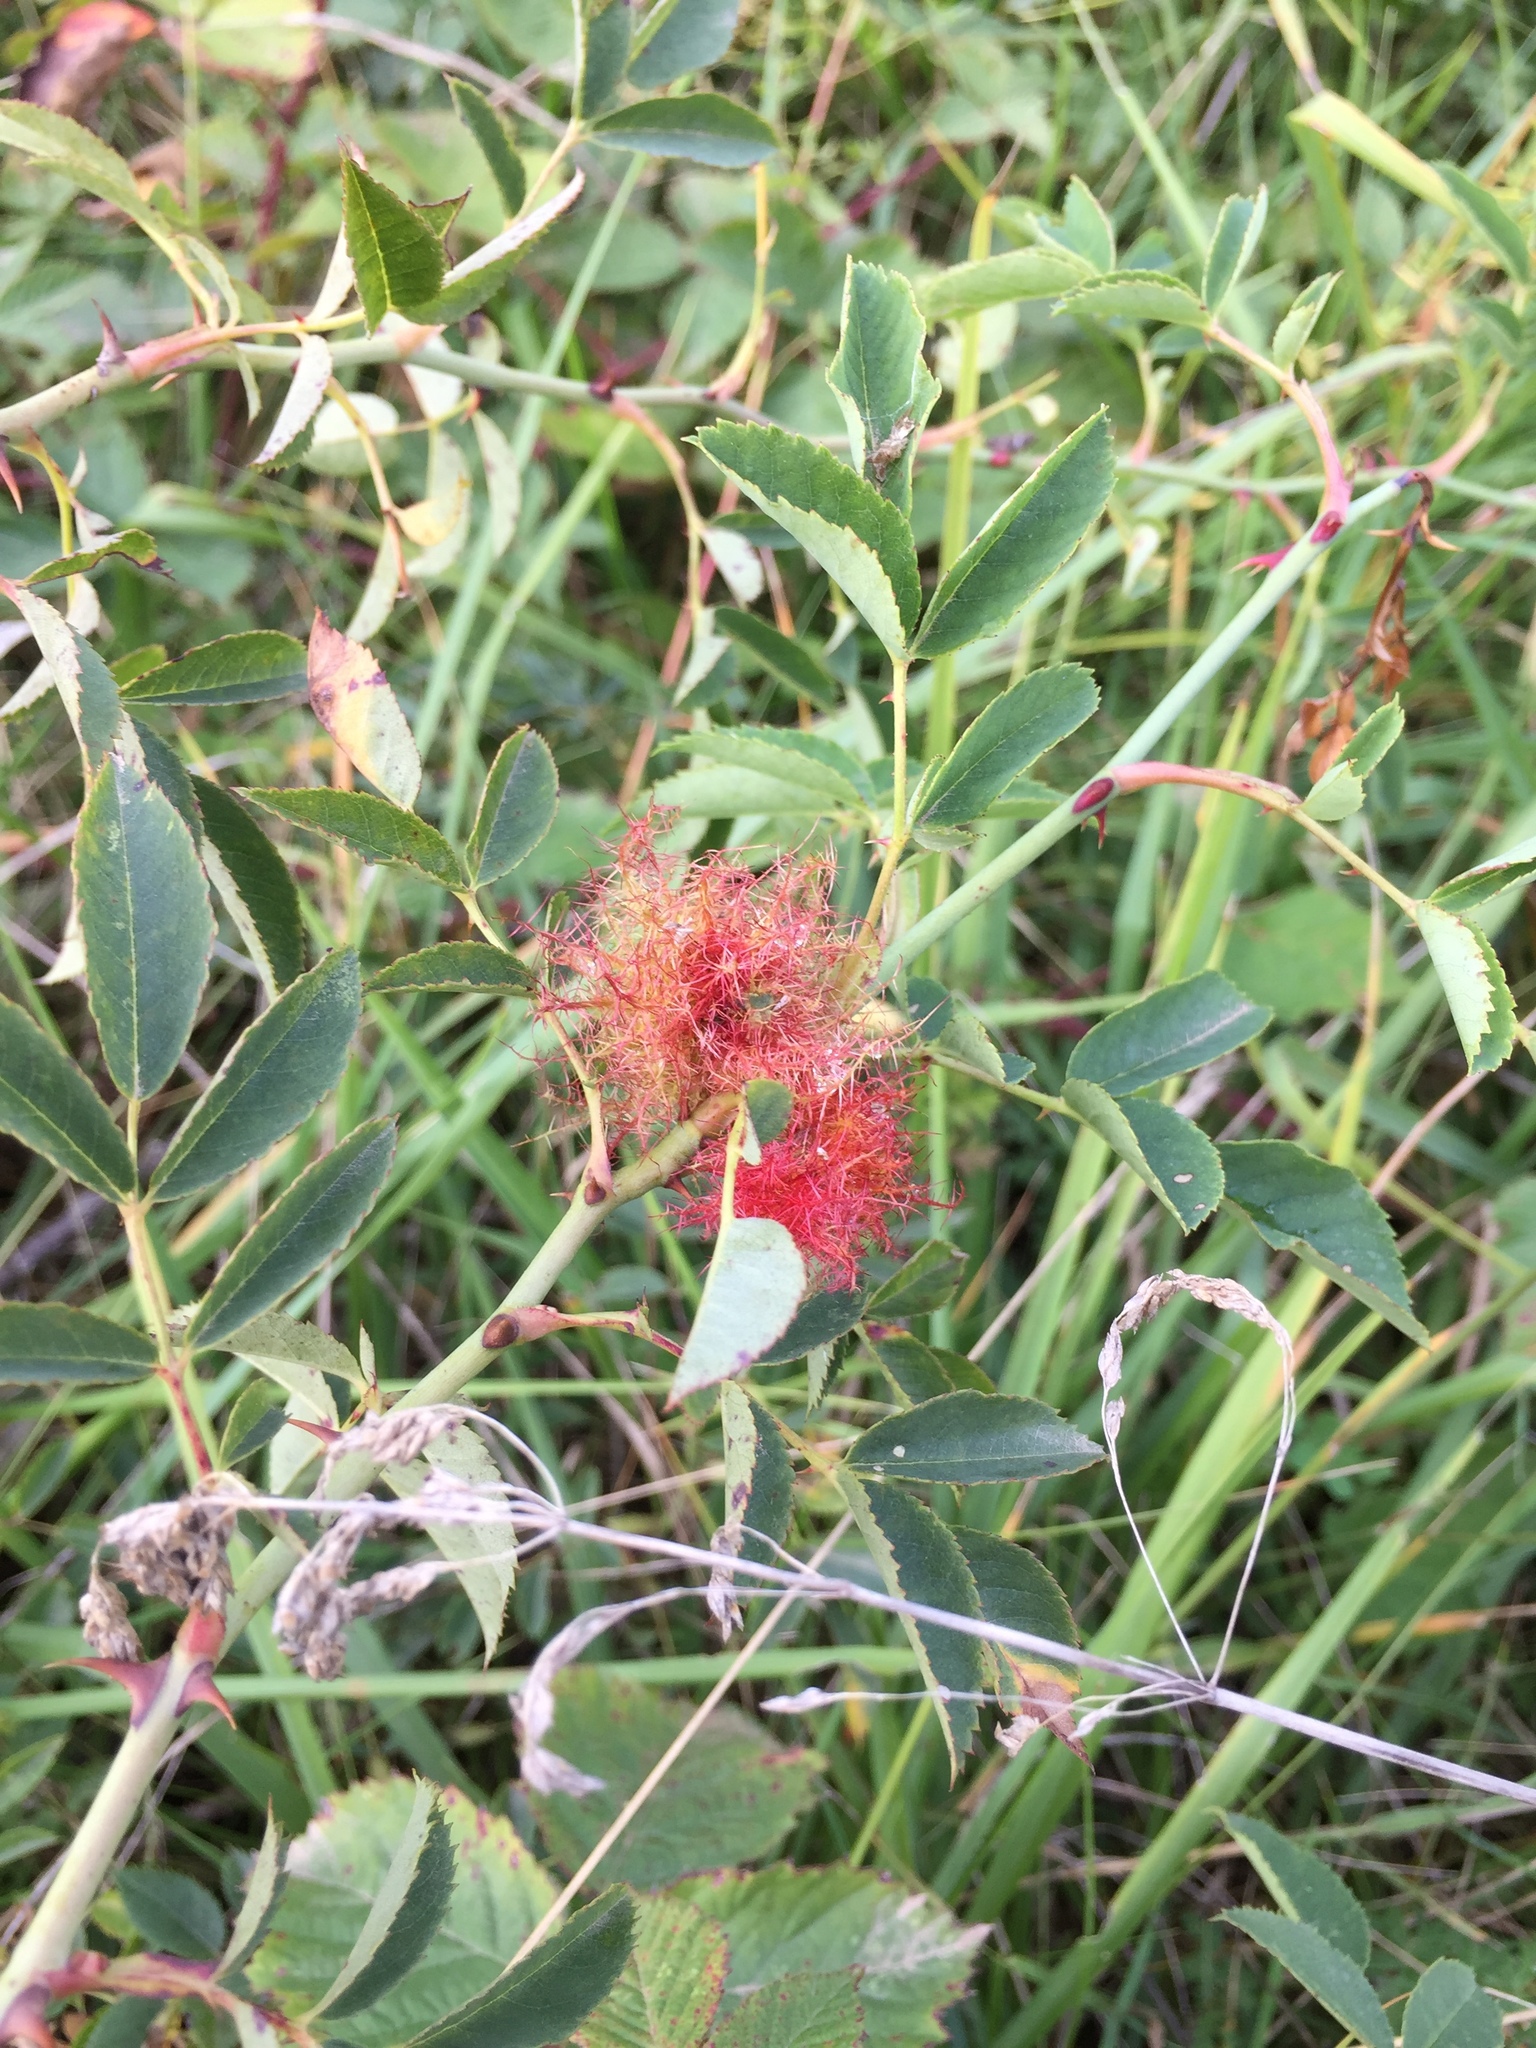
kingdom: Animalia
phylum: Arthropoda
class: Insecta
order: Hymenoptera
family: Cynipidae
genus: Diplolepis
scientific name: Diplolepis rosae
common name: Bedeguar gall
